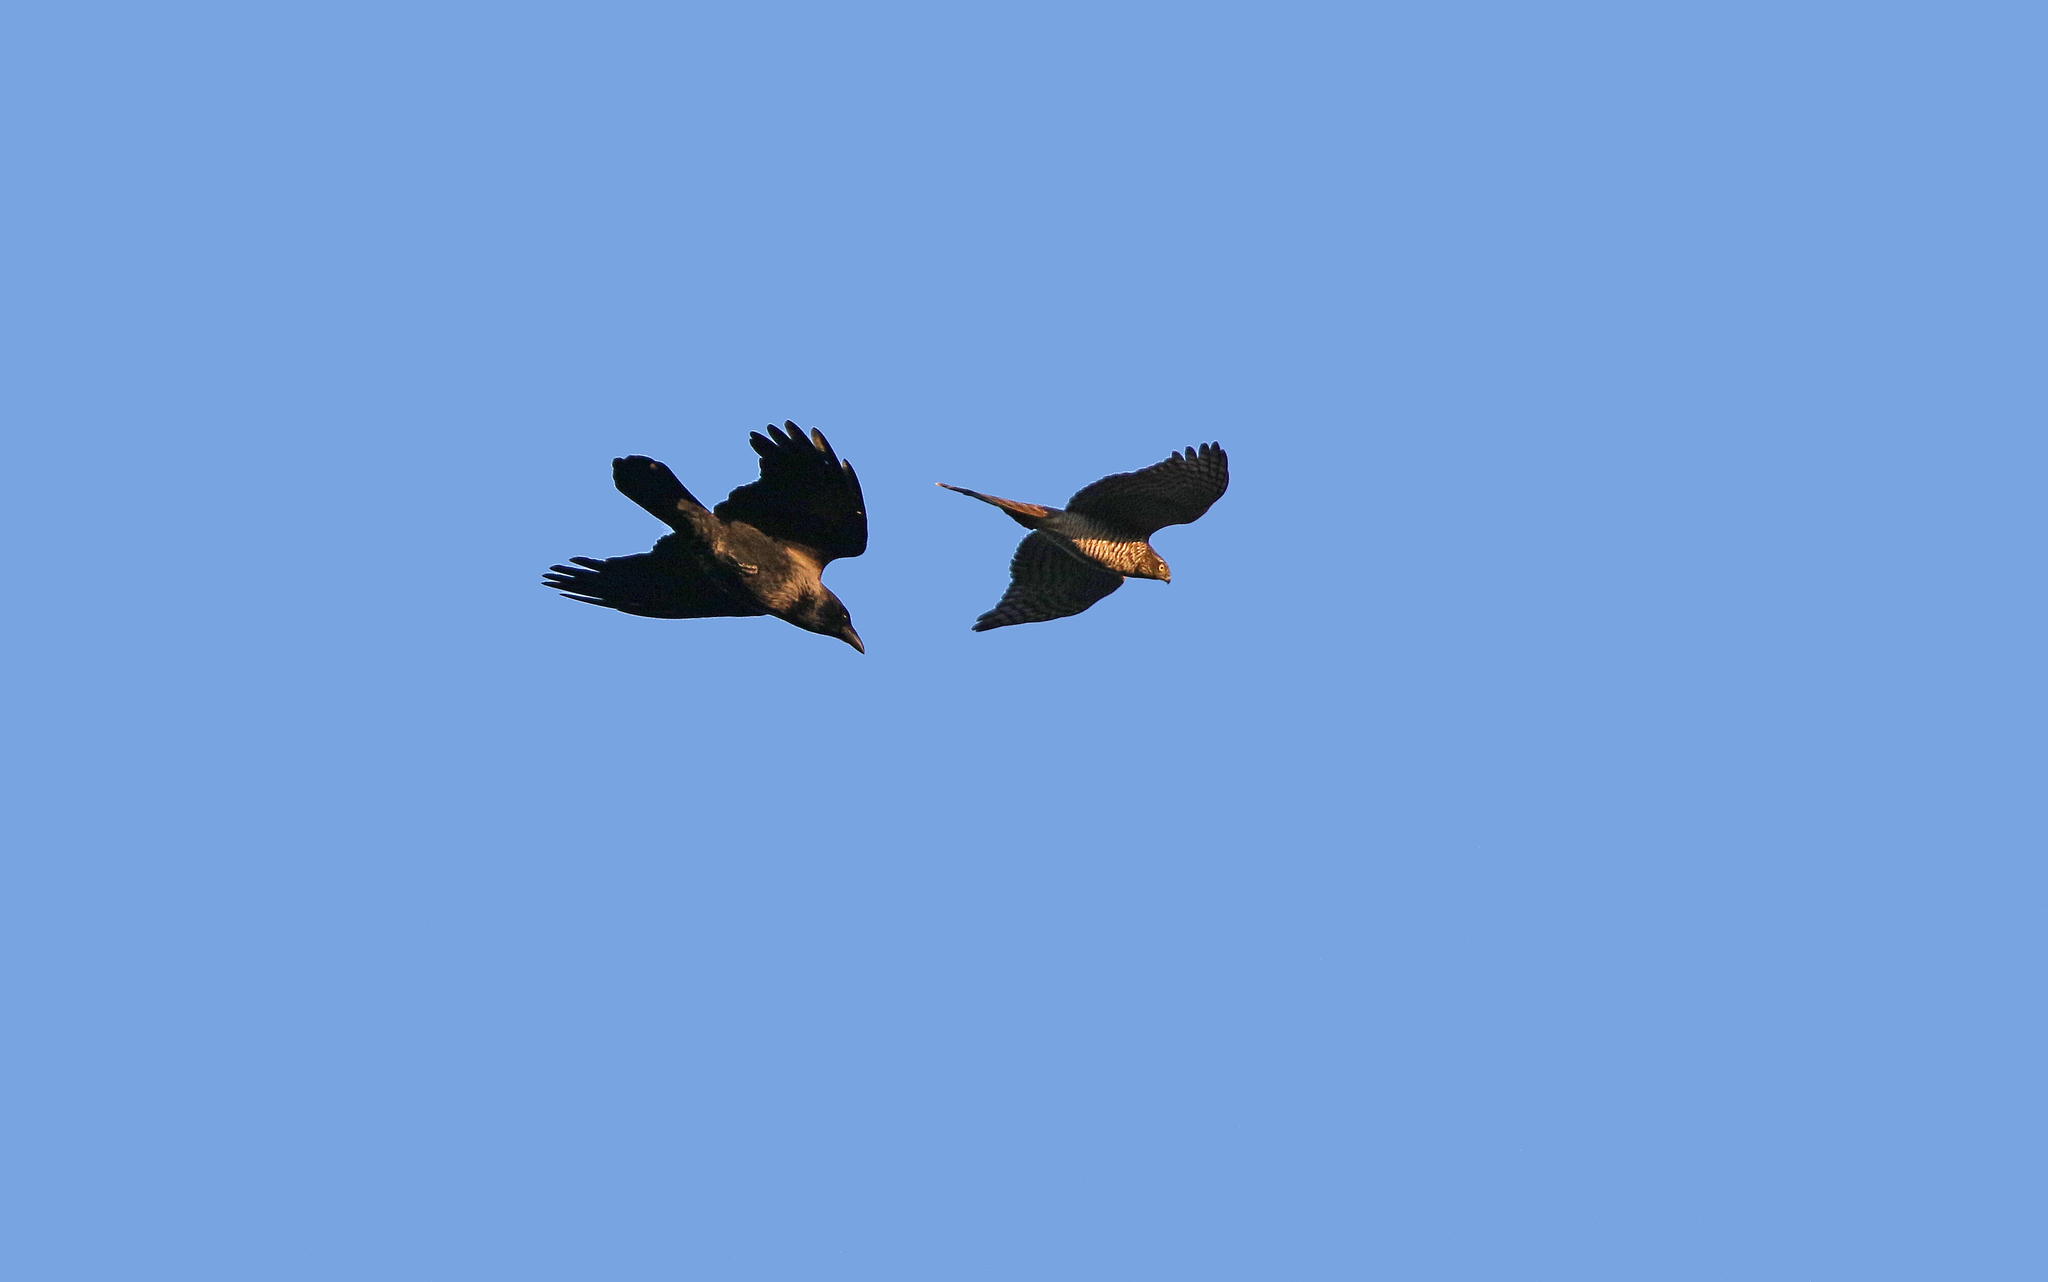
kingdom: Animalia
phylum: Chordata
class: Aves
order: Passeriformes
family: Corvidae
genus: Corvus
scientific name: Corvus
